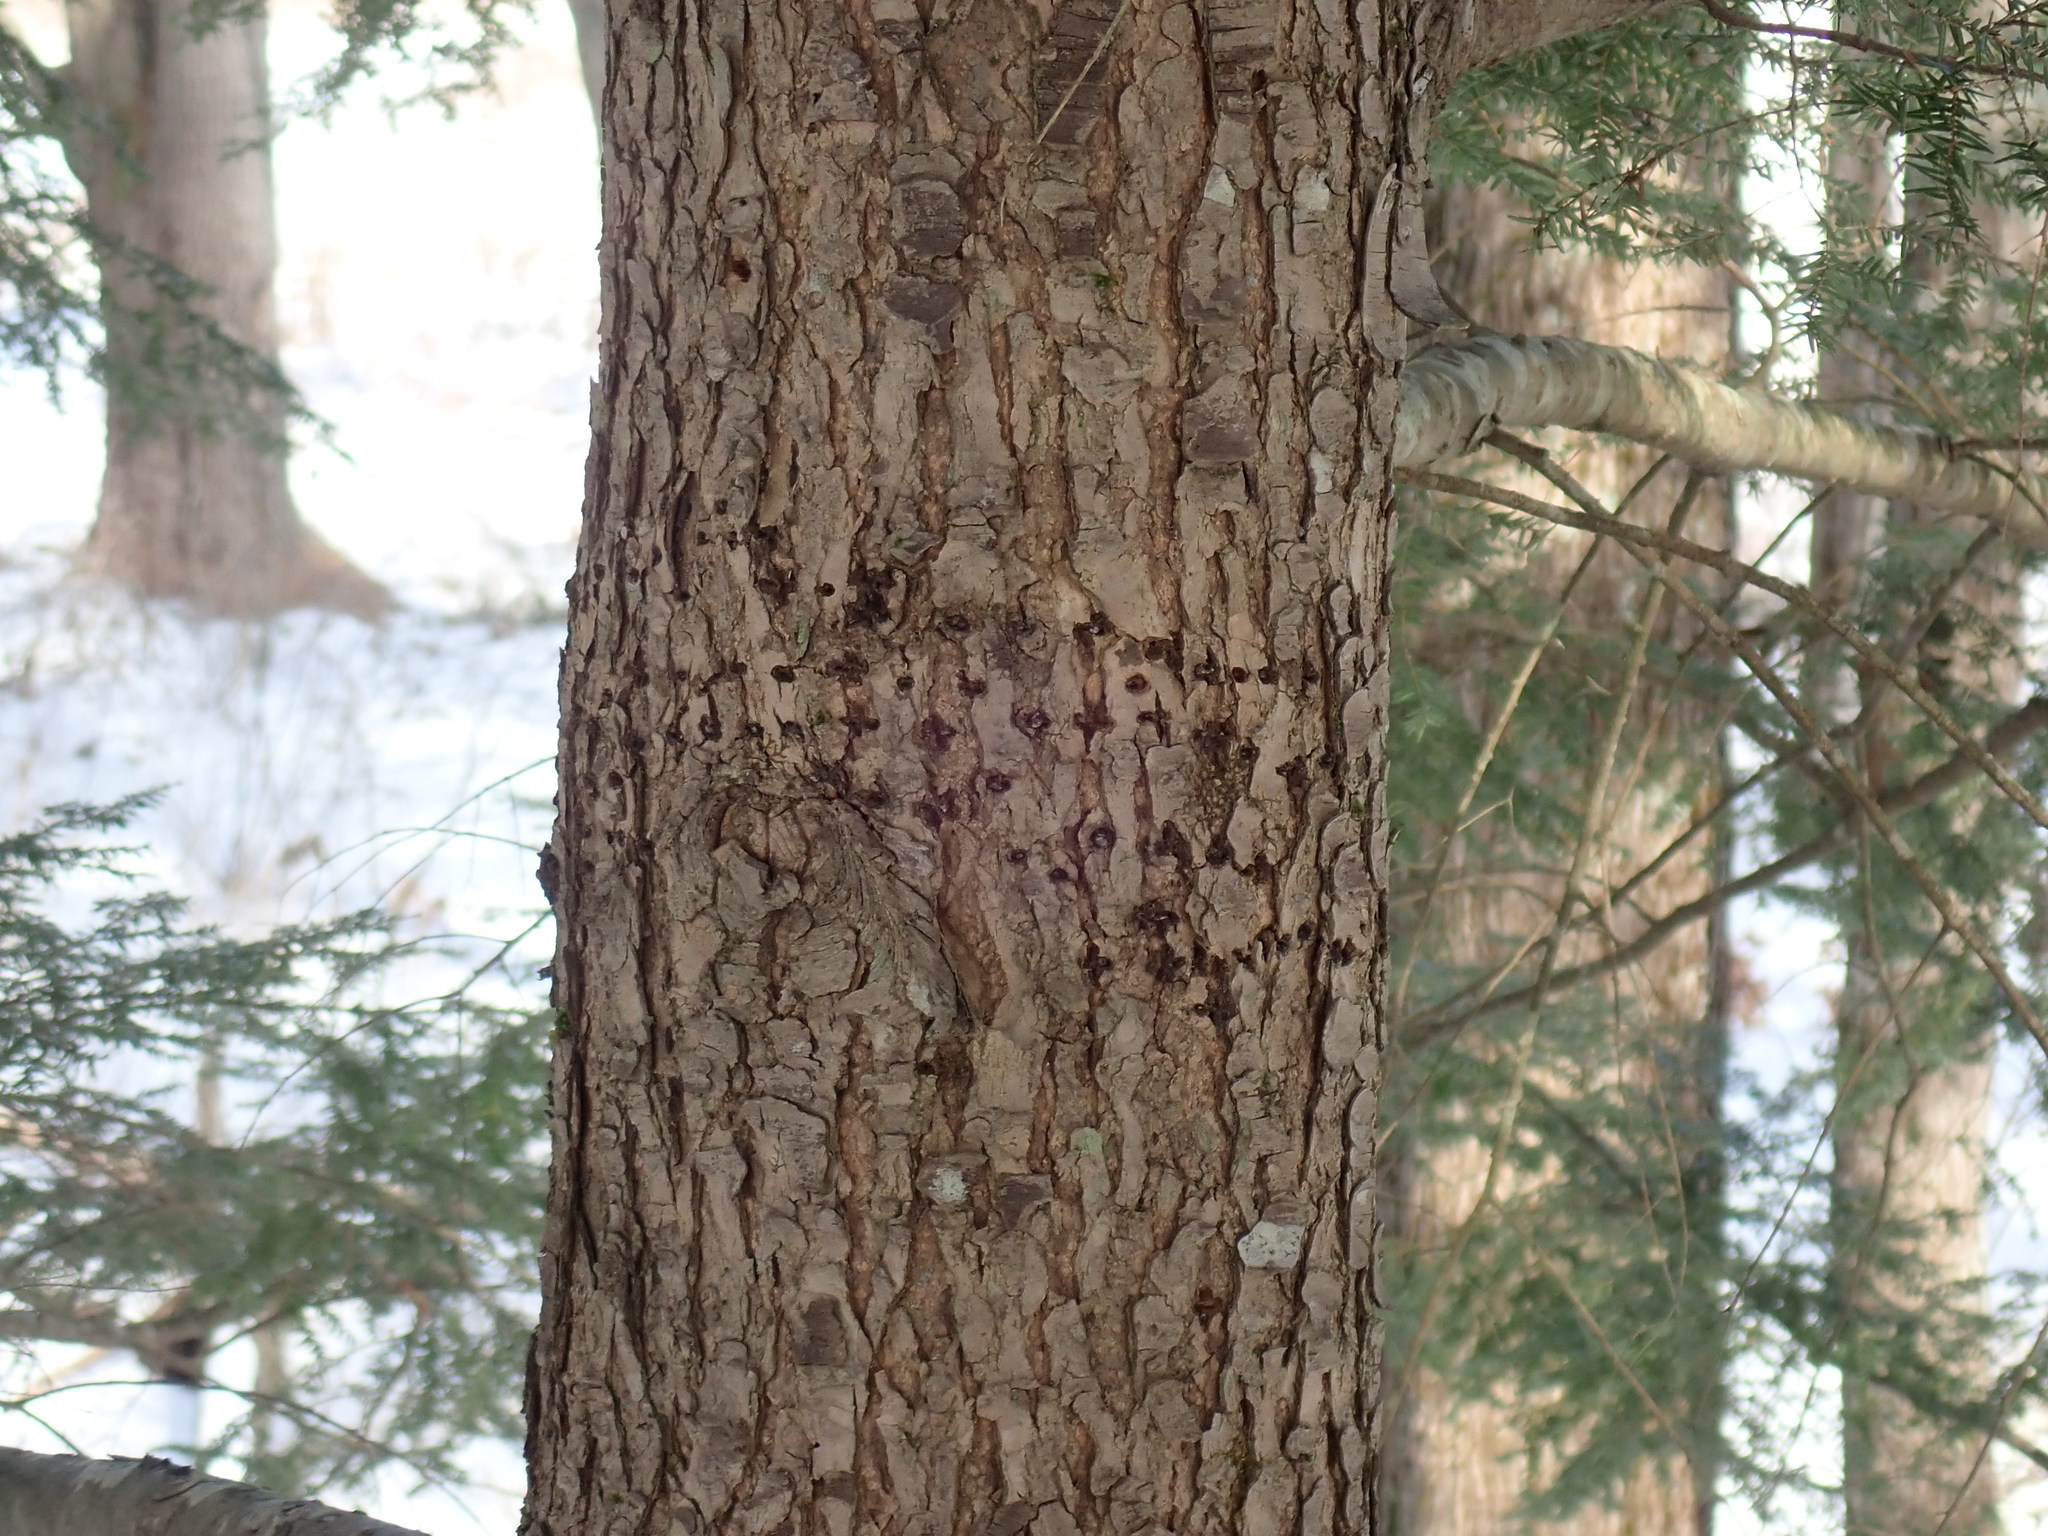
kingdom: Animalia
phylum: Chordata
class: Aves
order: Piciformes
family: Picidae
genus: Sphyrapicus
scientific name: Sphyrapicus varius
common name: Yellow-bellied sapsucker
